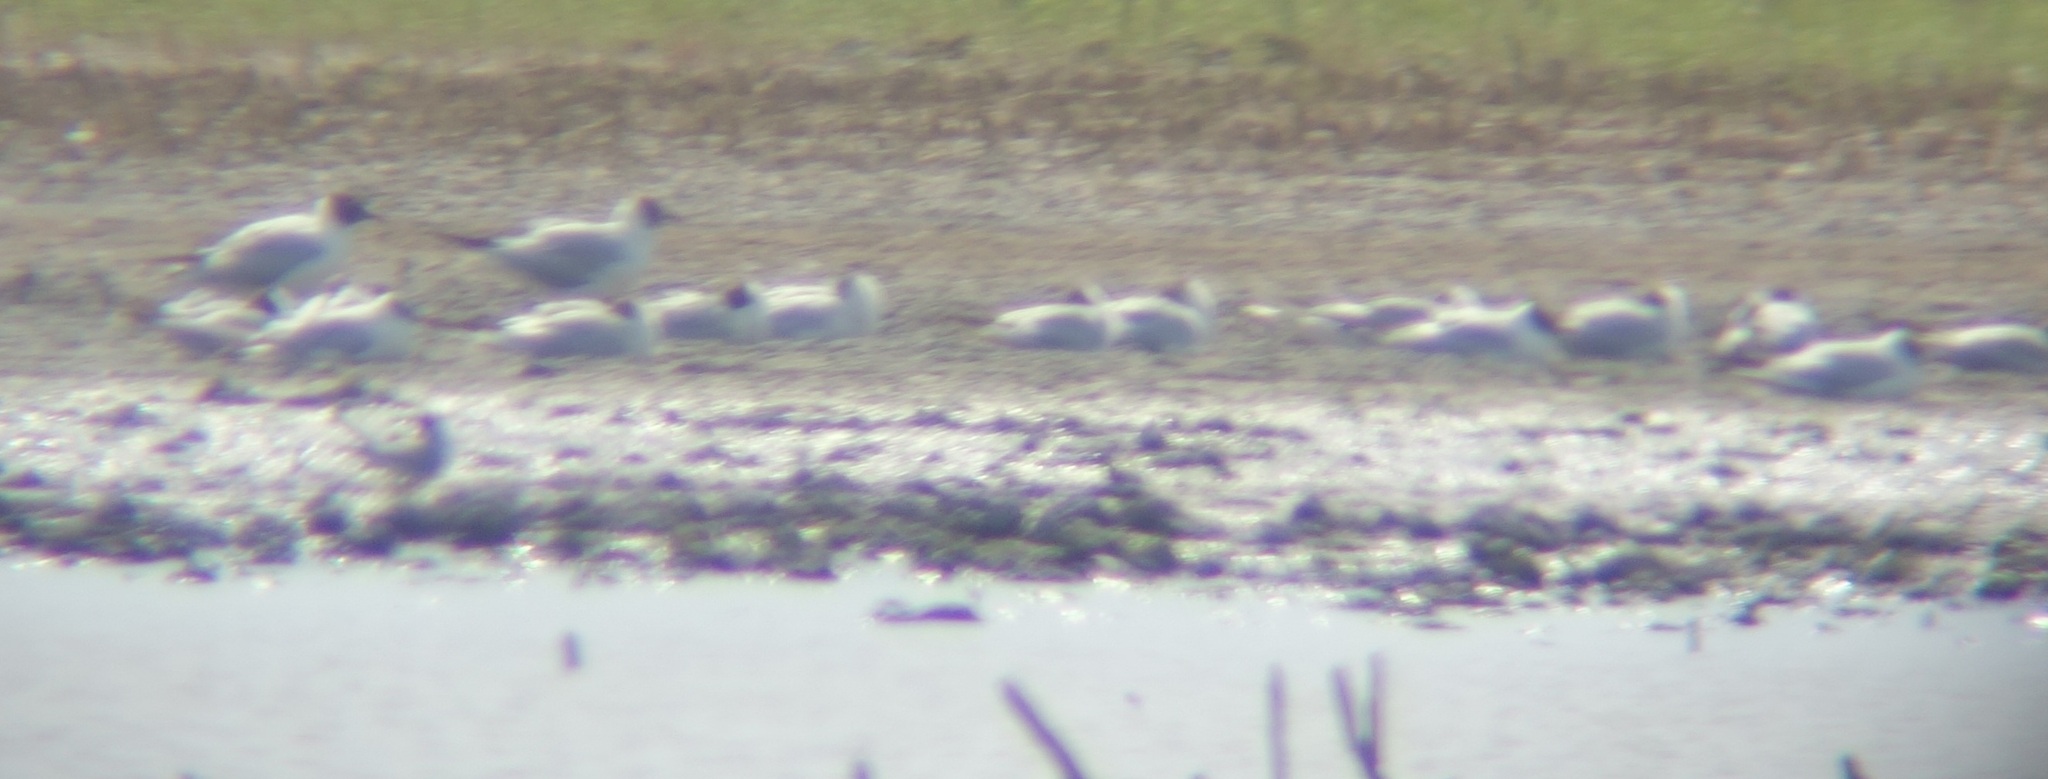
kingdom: Animalia
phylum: Chordata
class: Aves
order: Charadriiformes
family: Laridae
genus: Chroicocephalus
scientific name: Chroicocephalus ridibundus
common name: Black-headed gull
